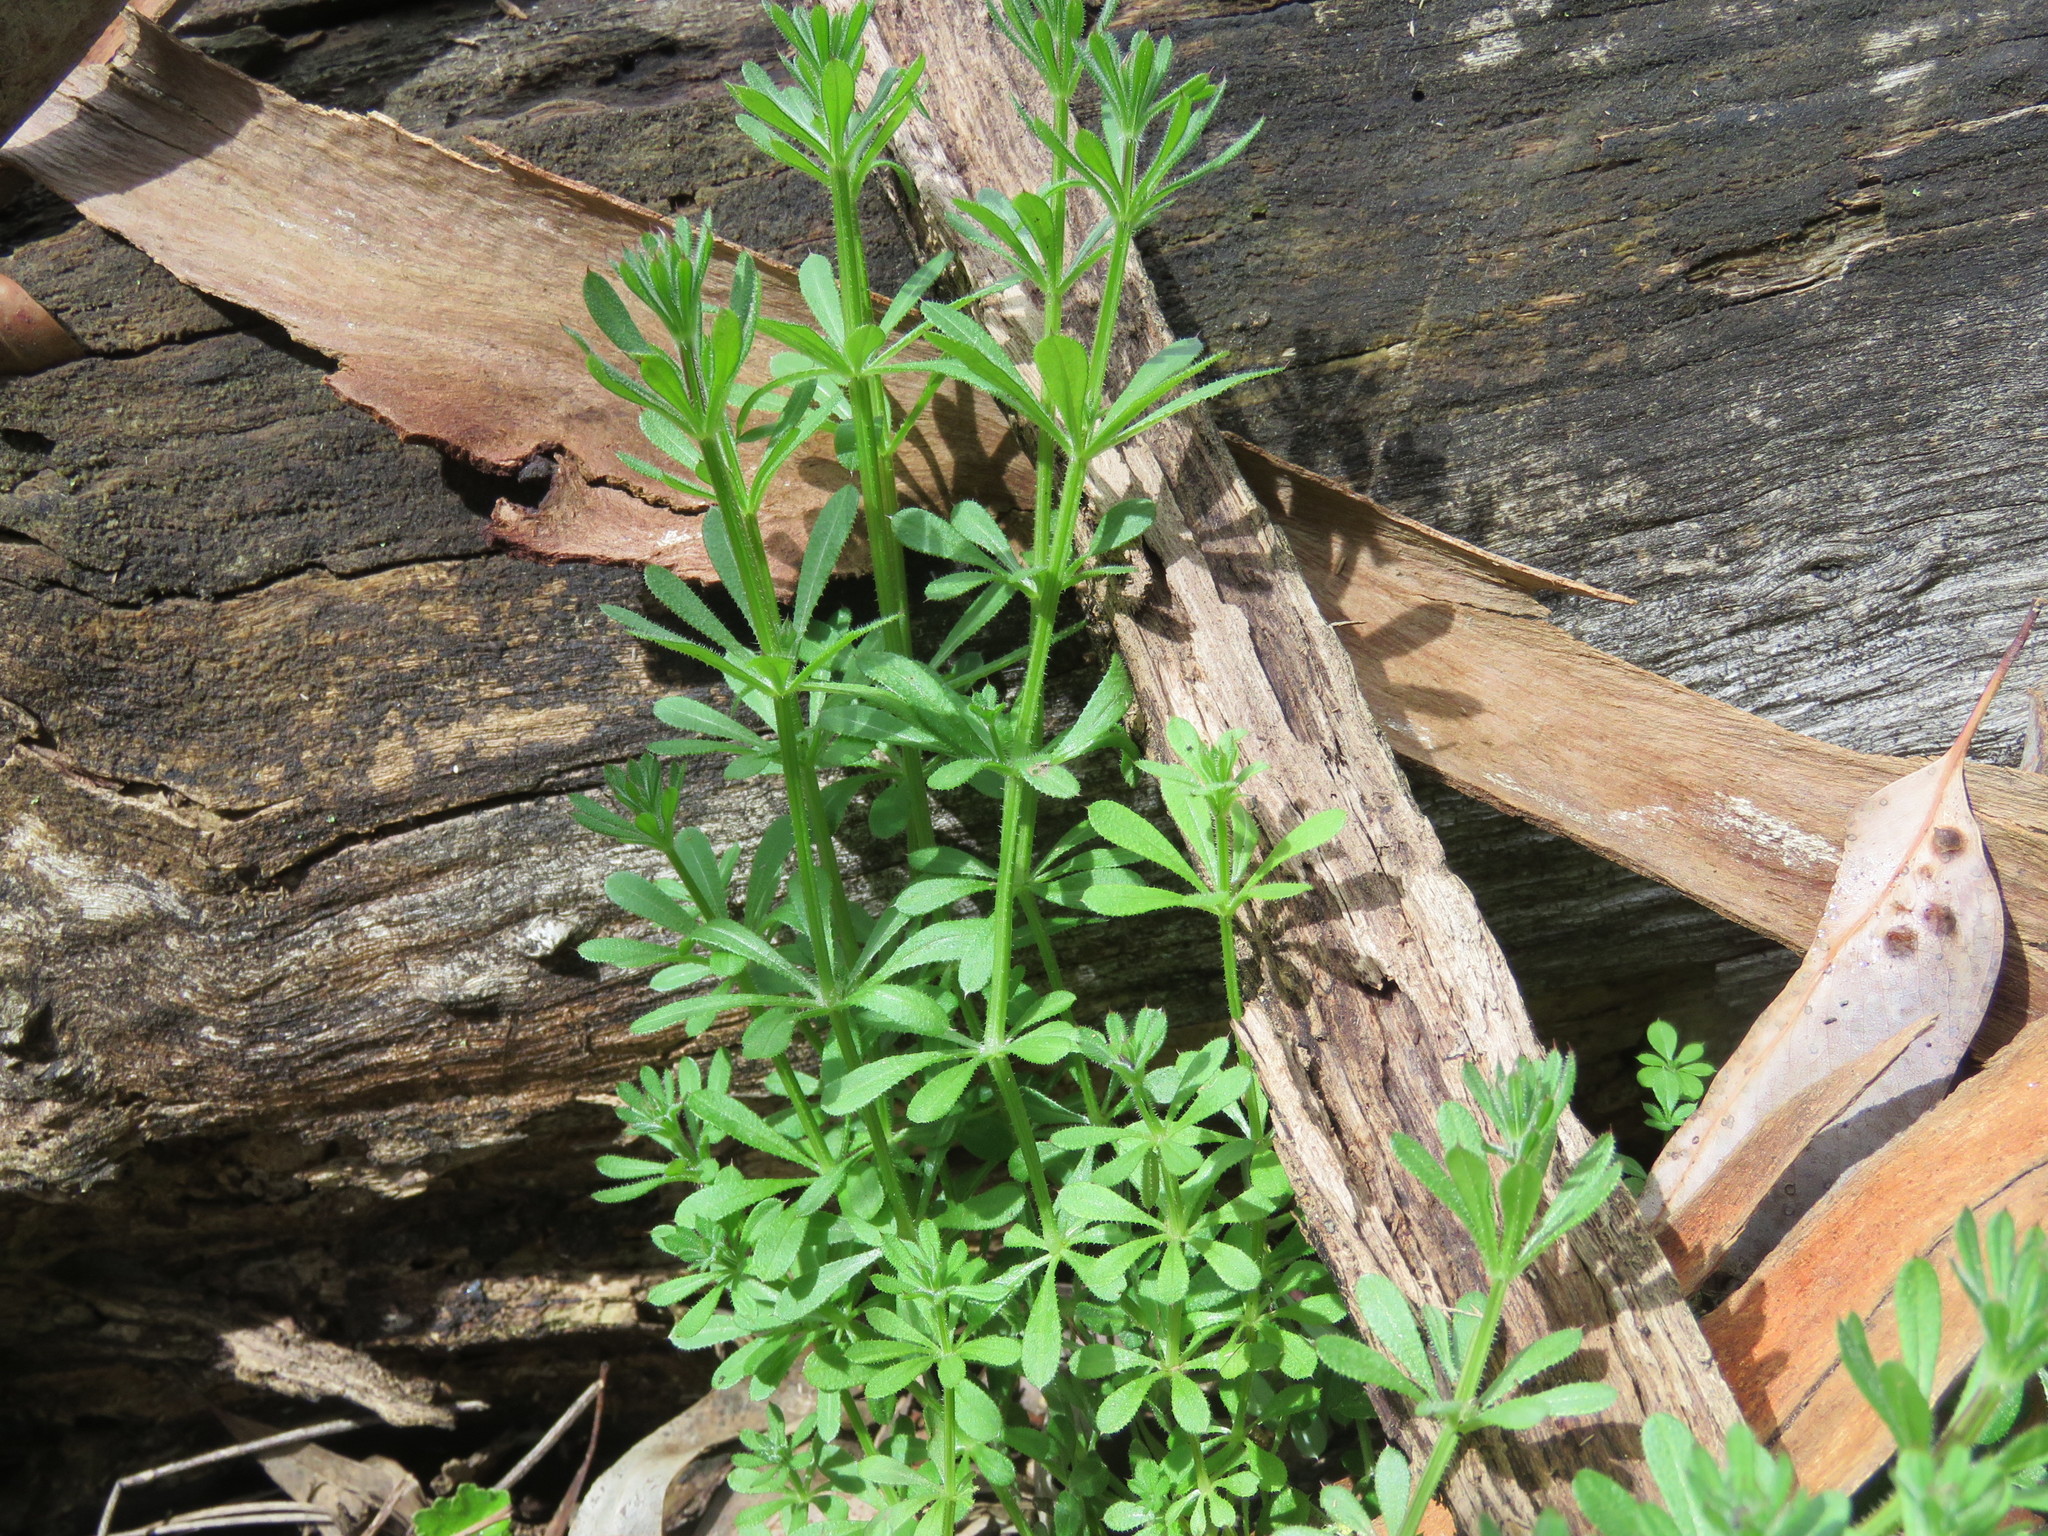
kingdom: Plantae
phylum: Tracheophyta
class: Magnoliopsida
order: Gentianales
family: Rubiaceae
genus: Galium
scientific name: Galium aparine
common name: Cleavers
